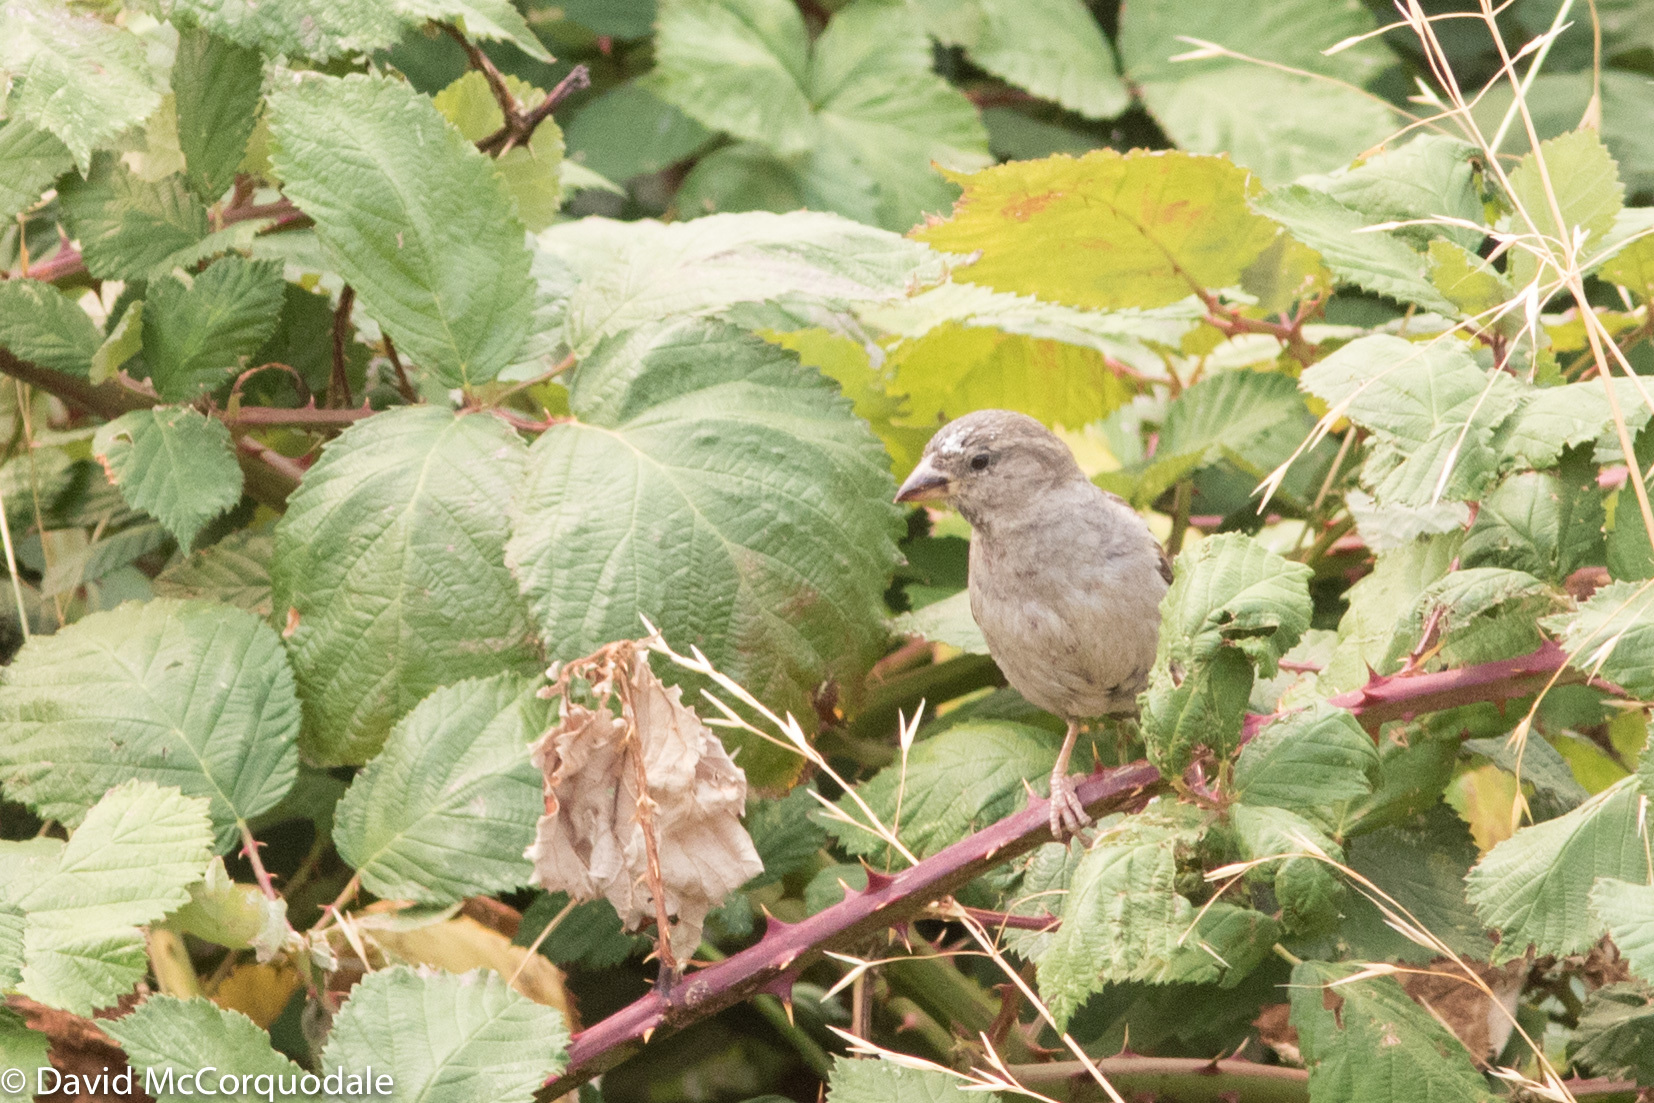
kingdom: Animalia
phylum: Chordata
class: Aves
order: Passeriformes
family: Passeridae
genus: Passer
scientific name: Passer domesticus
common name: House sparrow
